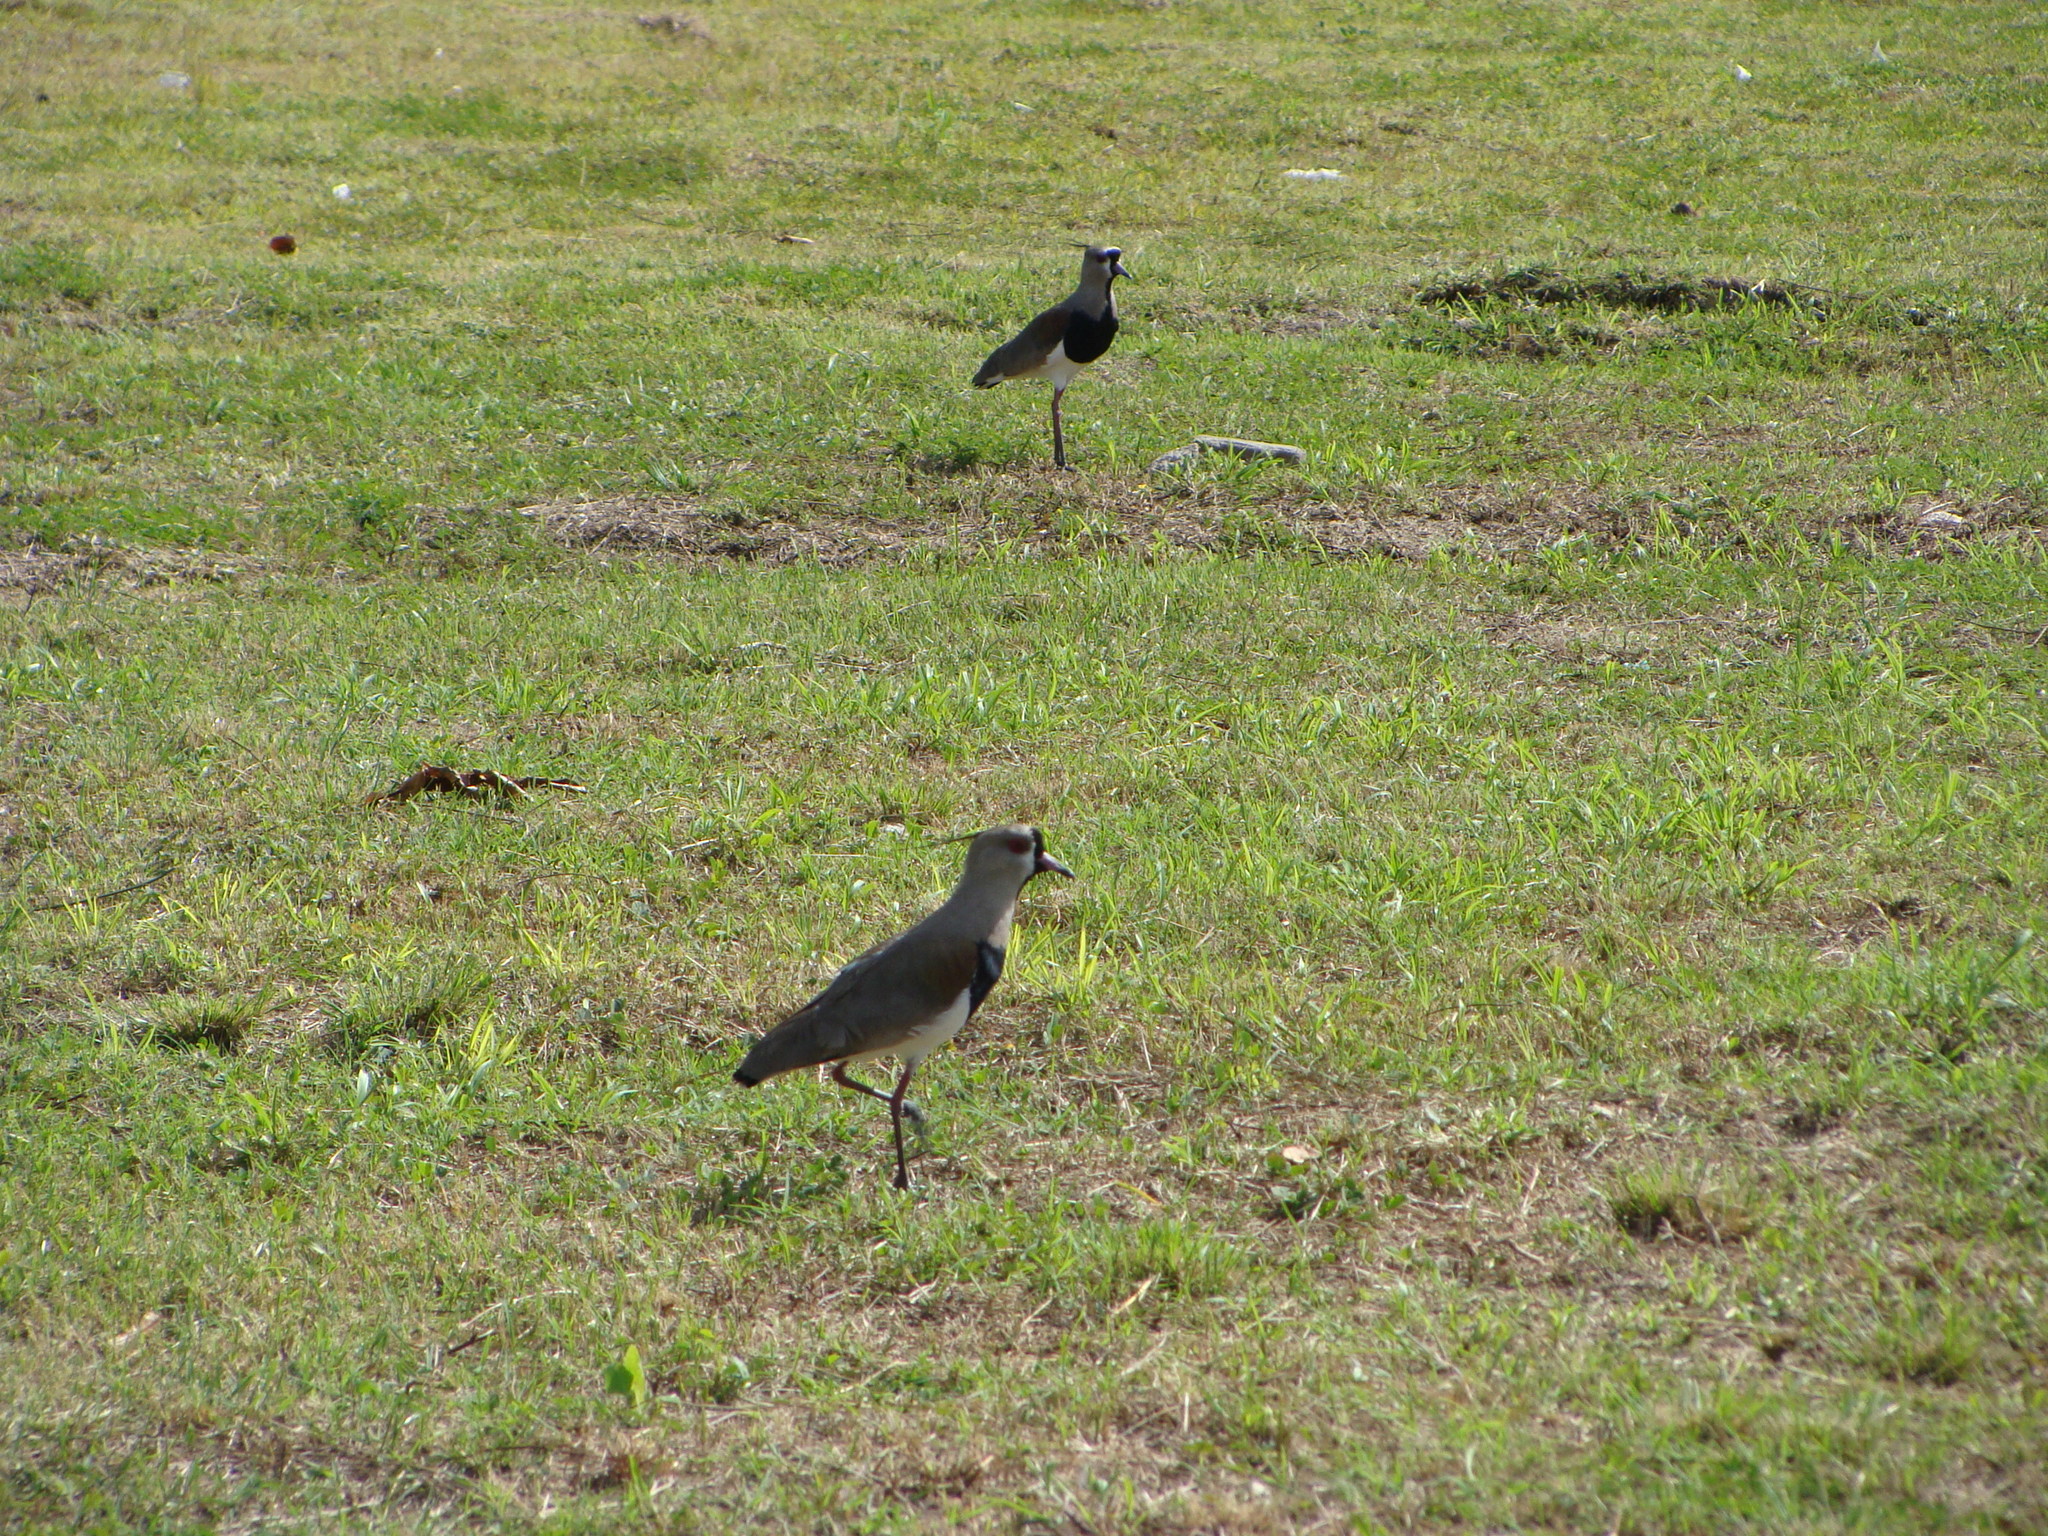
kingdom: Animalia
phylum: Chordata
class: Aves
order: Charadriiformes
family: Charadriidae
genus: Vanellus
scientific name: Vanellus chilensis
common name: Southern lapwing
